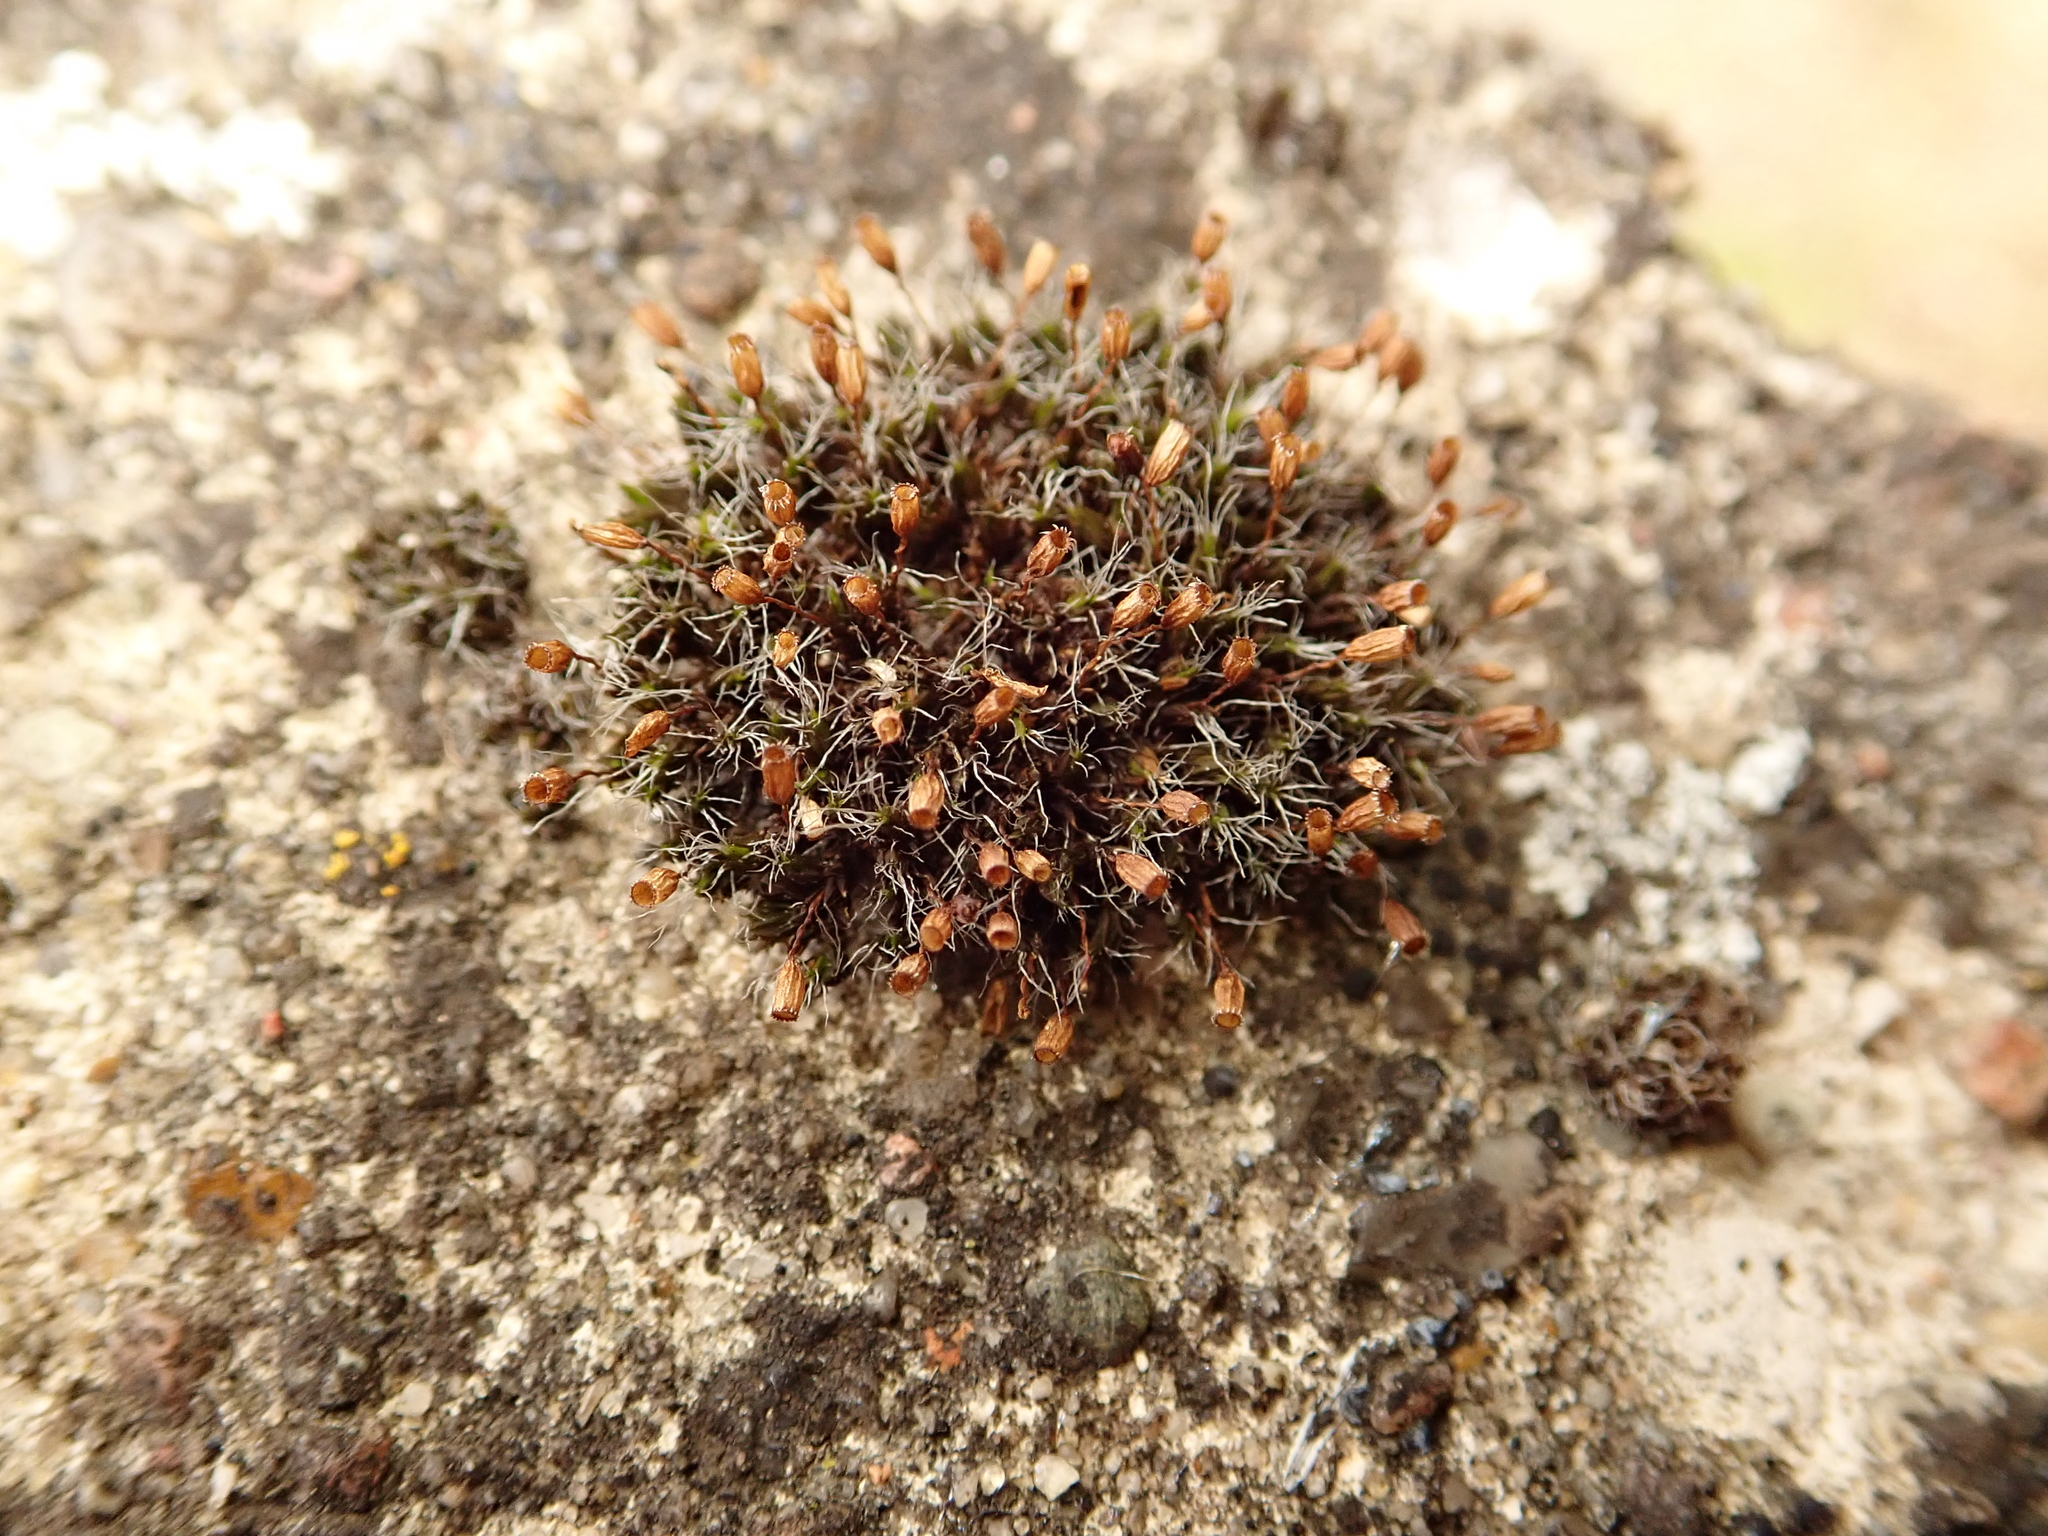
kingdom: Plantae
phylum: Bryophyta
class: Bryopsida
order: Grimmiales
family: Grimmiaceae
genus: Grimmia
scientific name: Grimmia pulvinata
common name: Grey-cushioned grimmia
